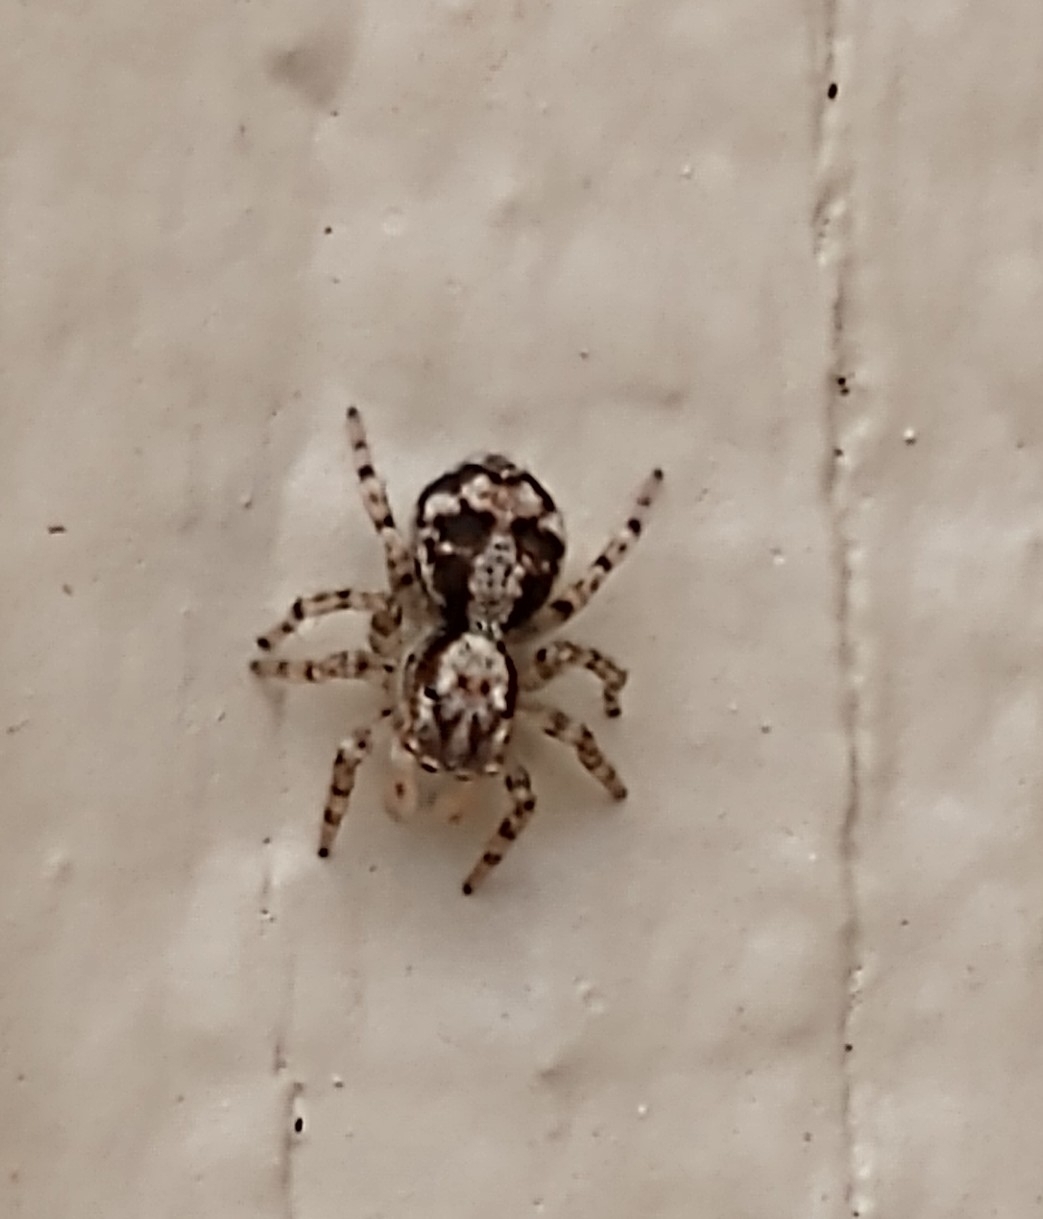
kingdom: Animalia
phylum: Arthropoda
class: Arachnida
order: Araneae
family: Salticidae
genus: Naphrys
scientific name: Naphrys pulex
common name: Flea jumping spider
